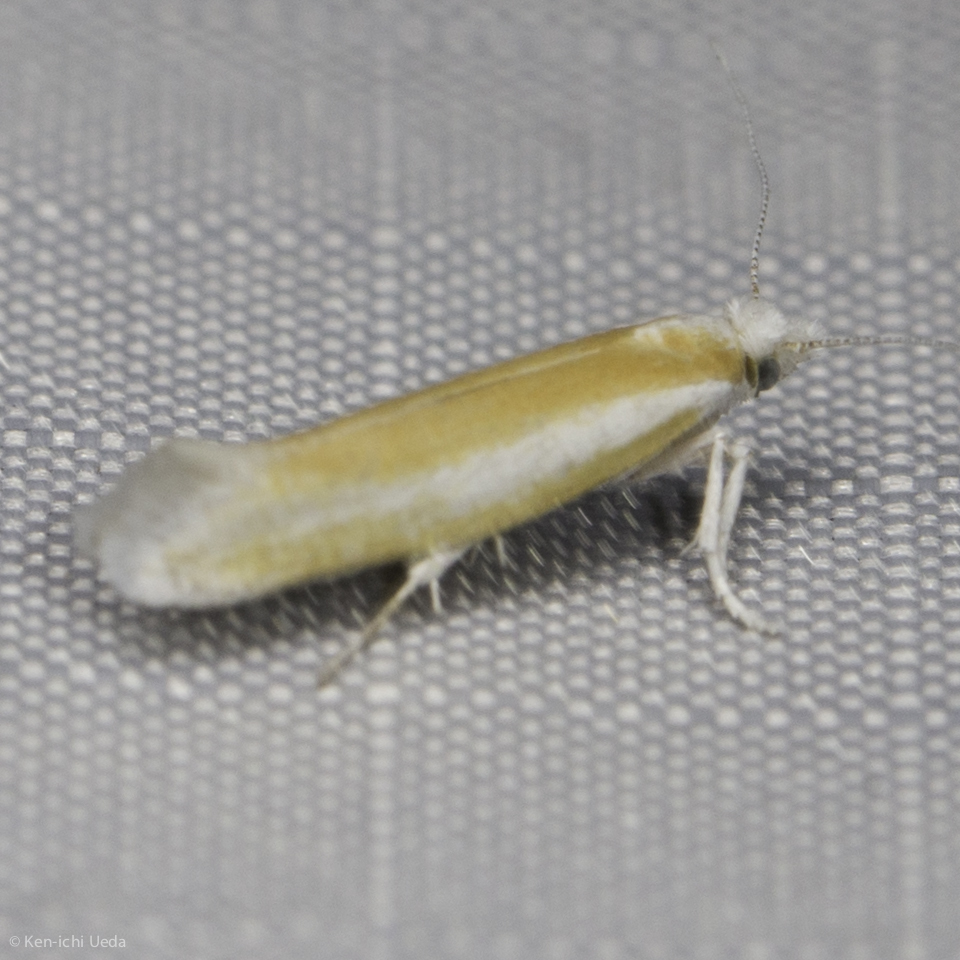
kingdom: Animalia
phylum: Arthropoda
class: Insecta
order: Lepidoptera
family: Yponomeutidae
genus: Zelleria
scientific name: Zelleria haimbachi
